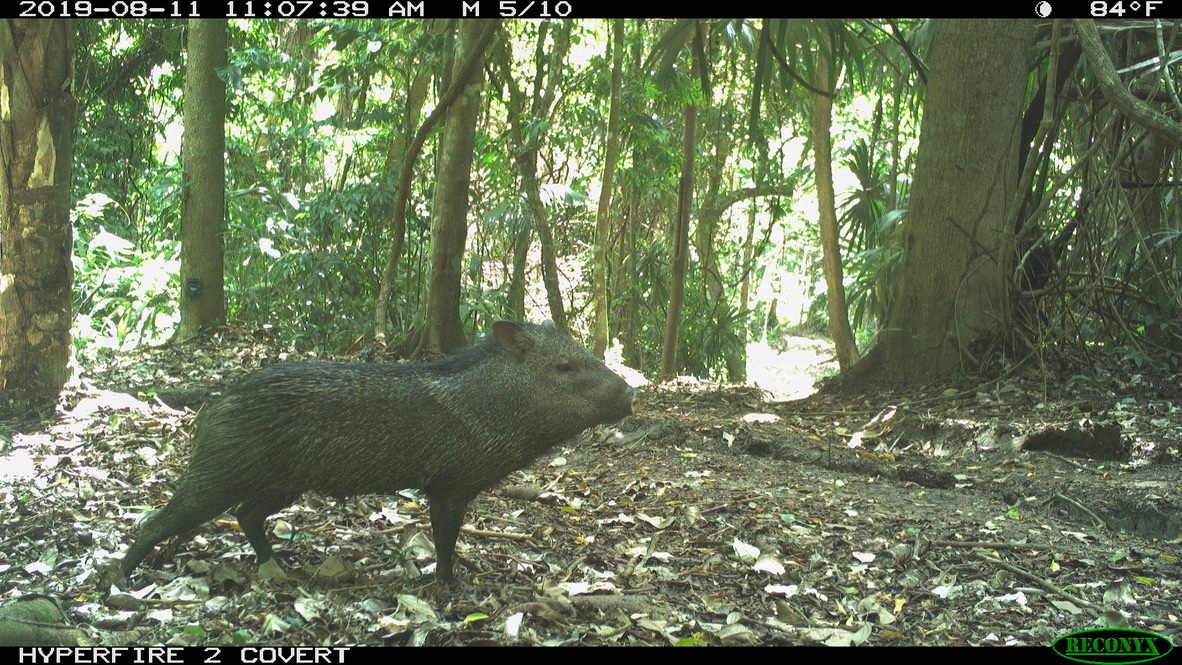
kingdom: Animalia
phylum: Chordata
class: Mammalia
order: Artiodactyla
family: Tayassuidae
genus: Pecari
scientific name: Pecari tajacu
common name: Collared peccary
